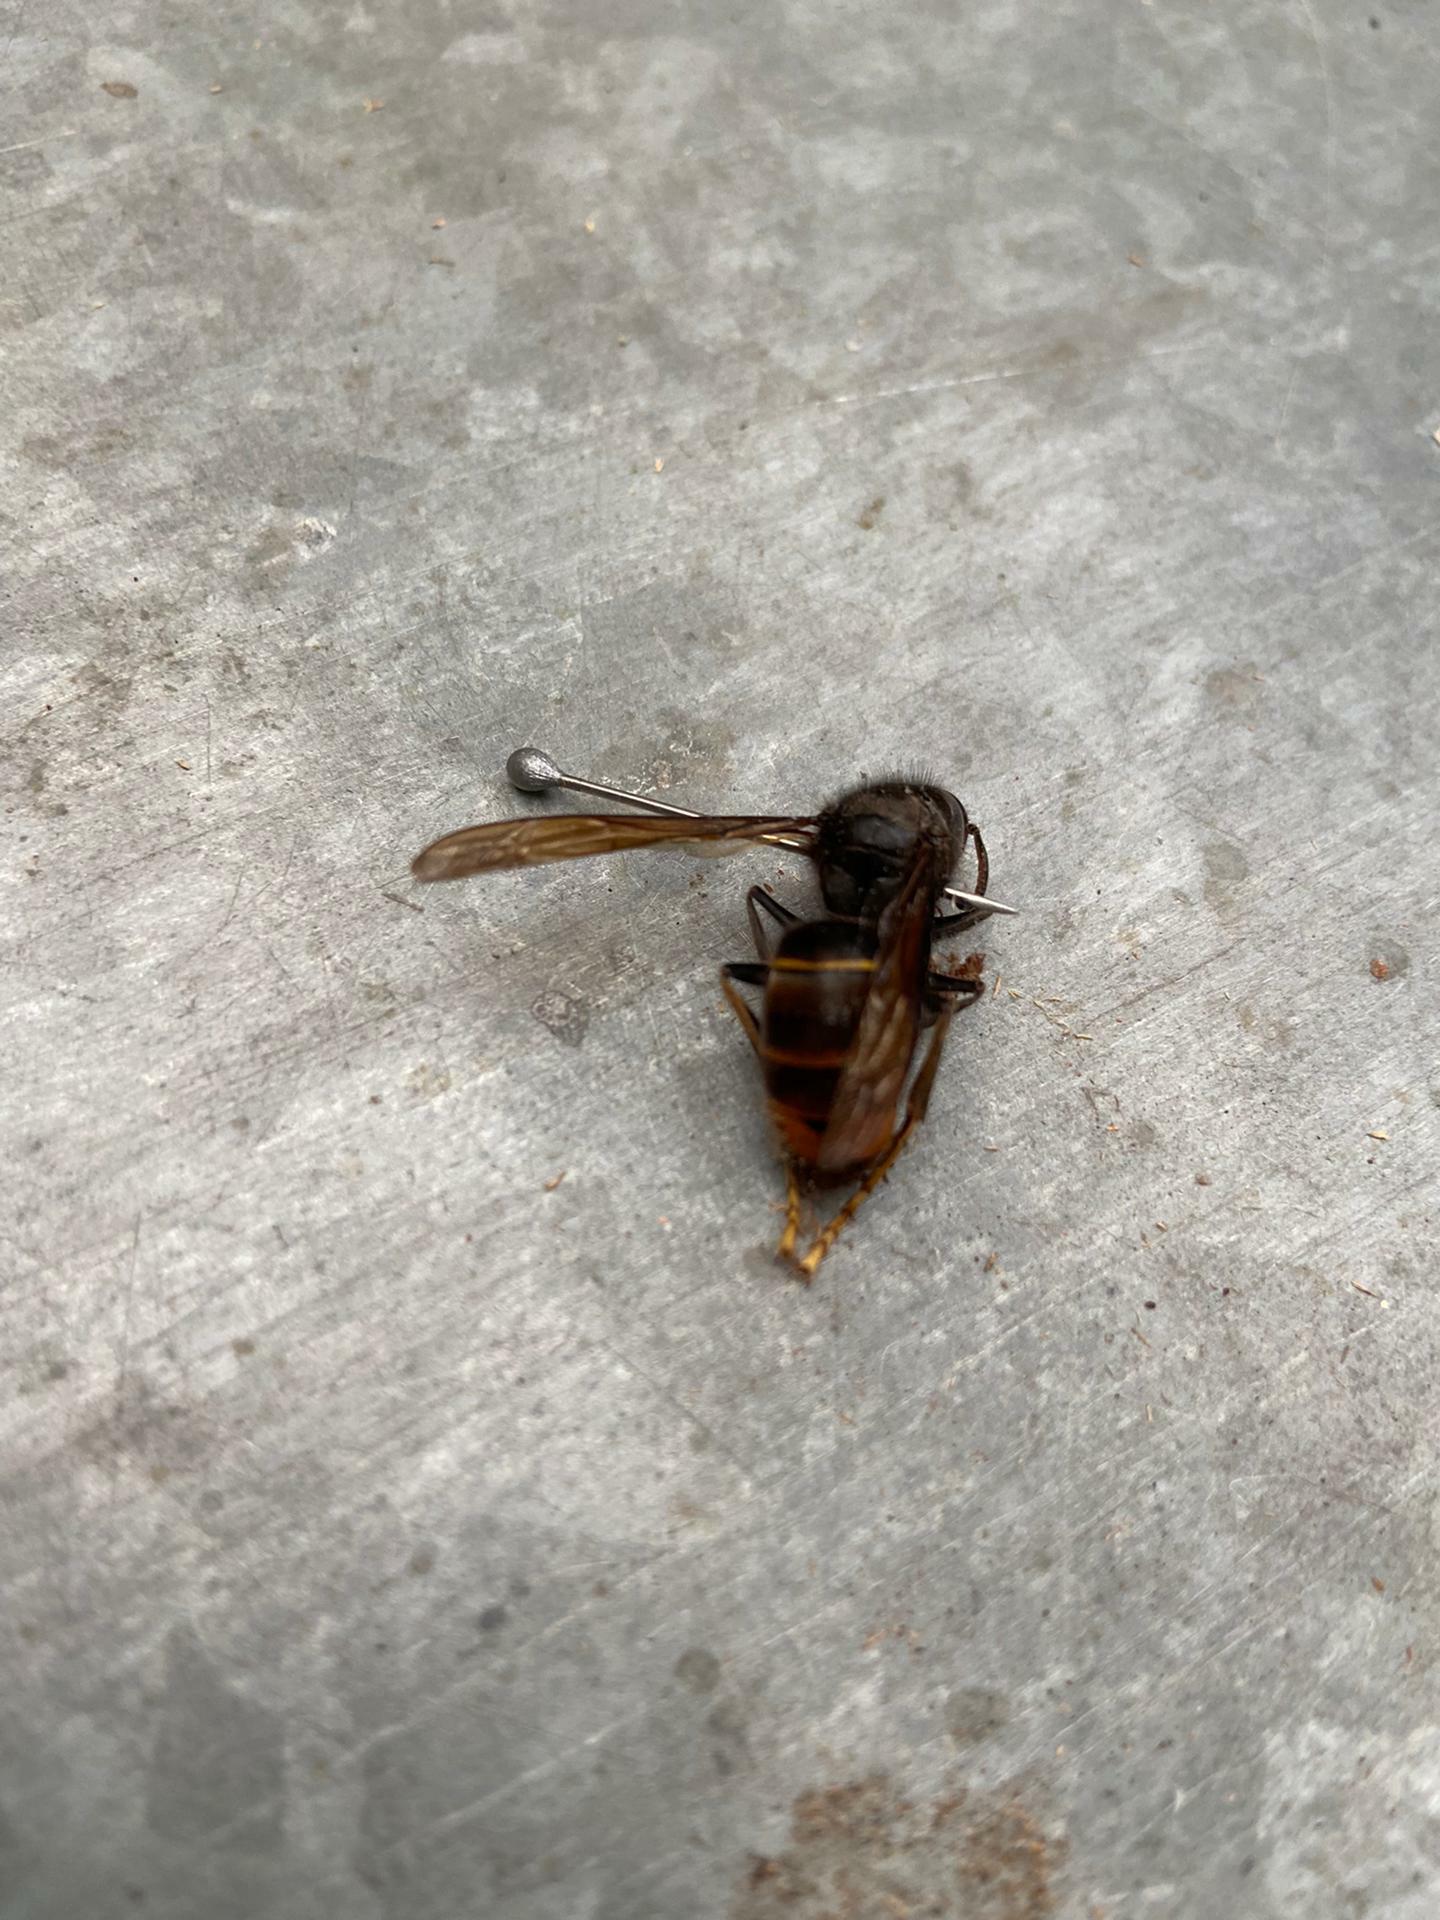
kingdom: Animalia
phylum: Arthropoda
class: Insecta
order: Hymenoptera
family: Vespidae
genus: Vespa
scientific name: Vespa velutina
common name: Asian hornet
